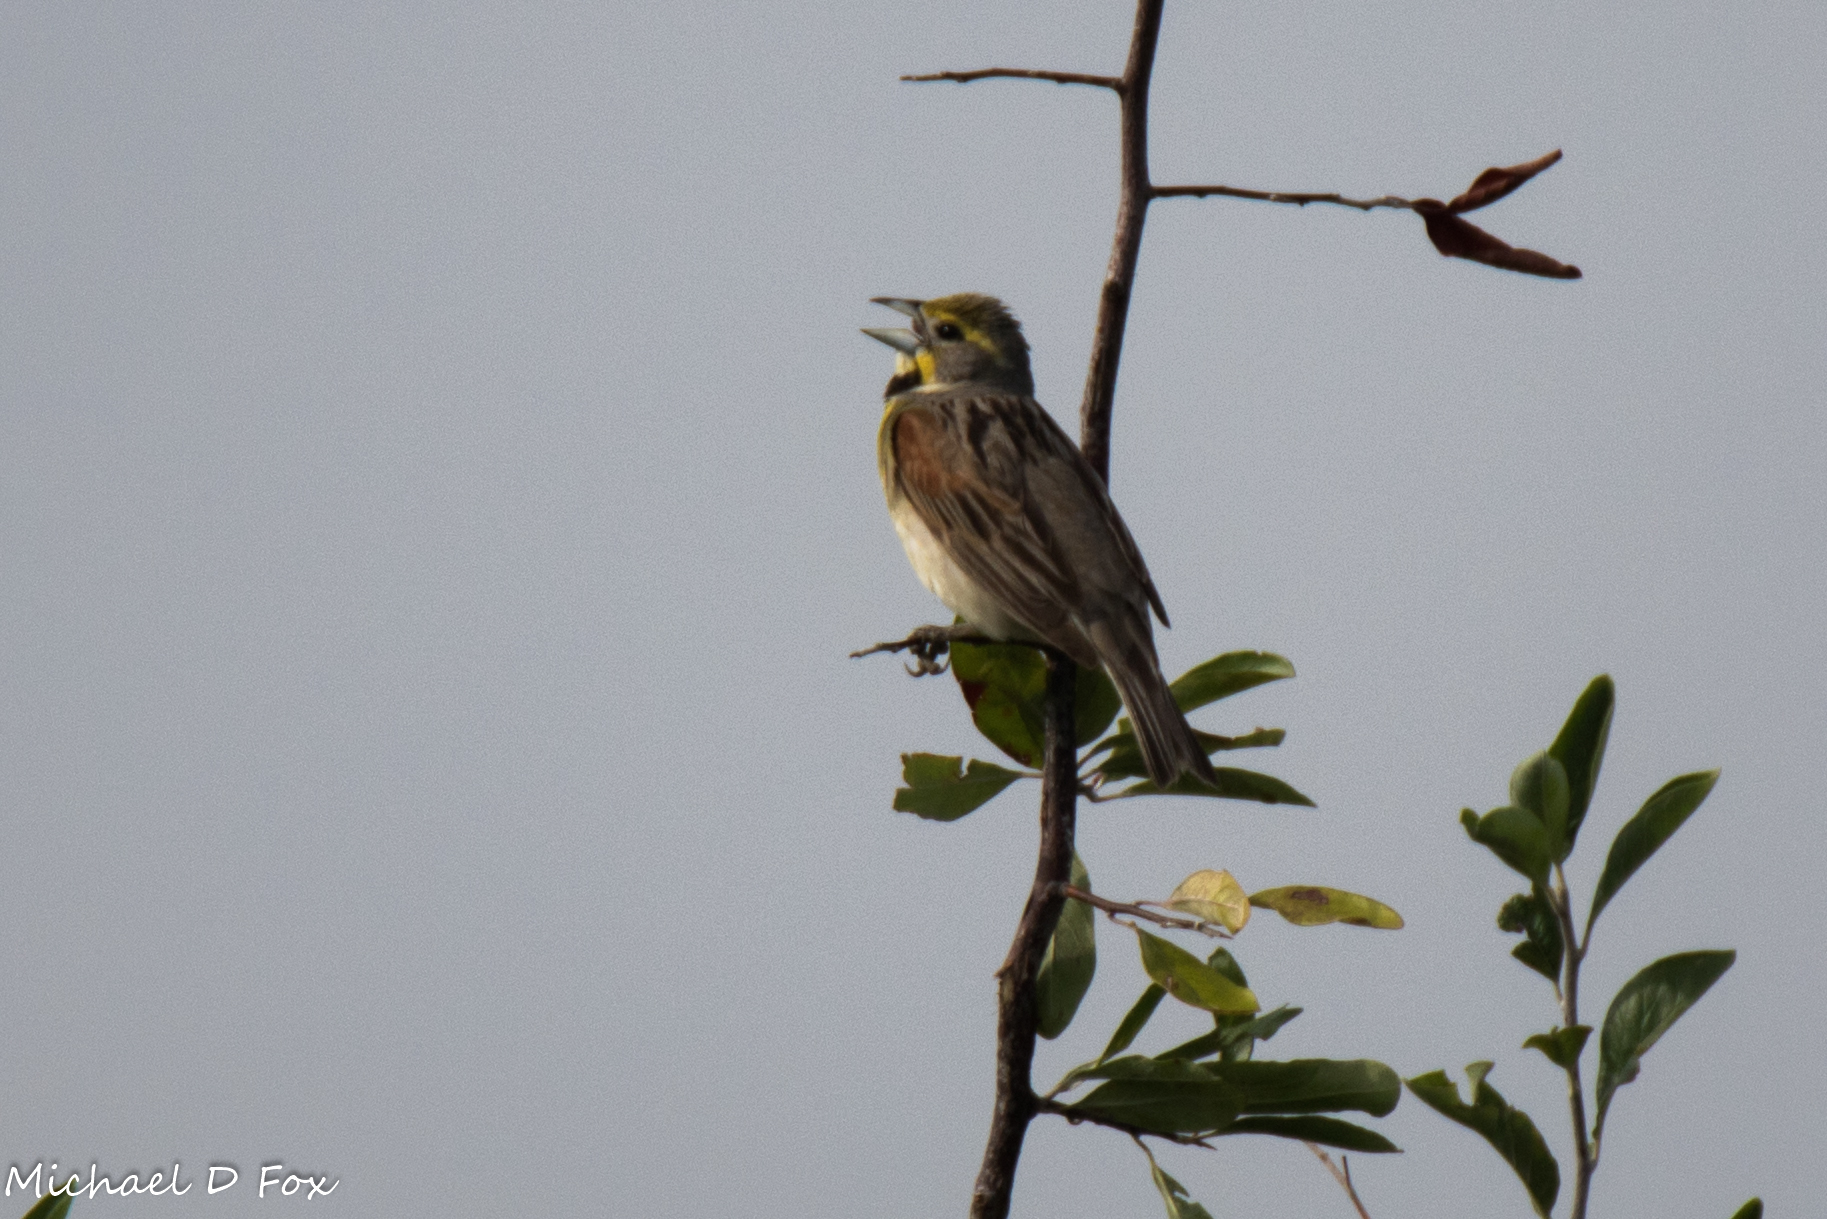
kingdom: Animalia
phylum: Chordata
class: Aves
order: Passeriformes
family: Cardinalidae
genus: Spiza
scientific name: Spiza americana
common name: Dickcissel
